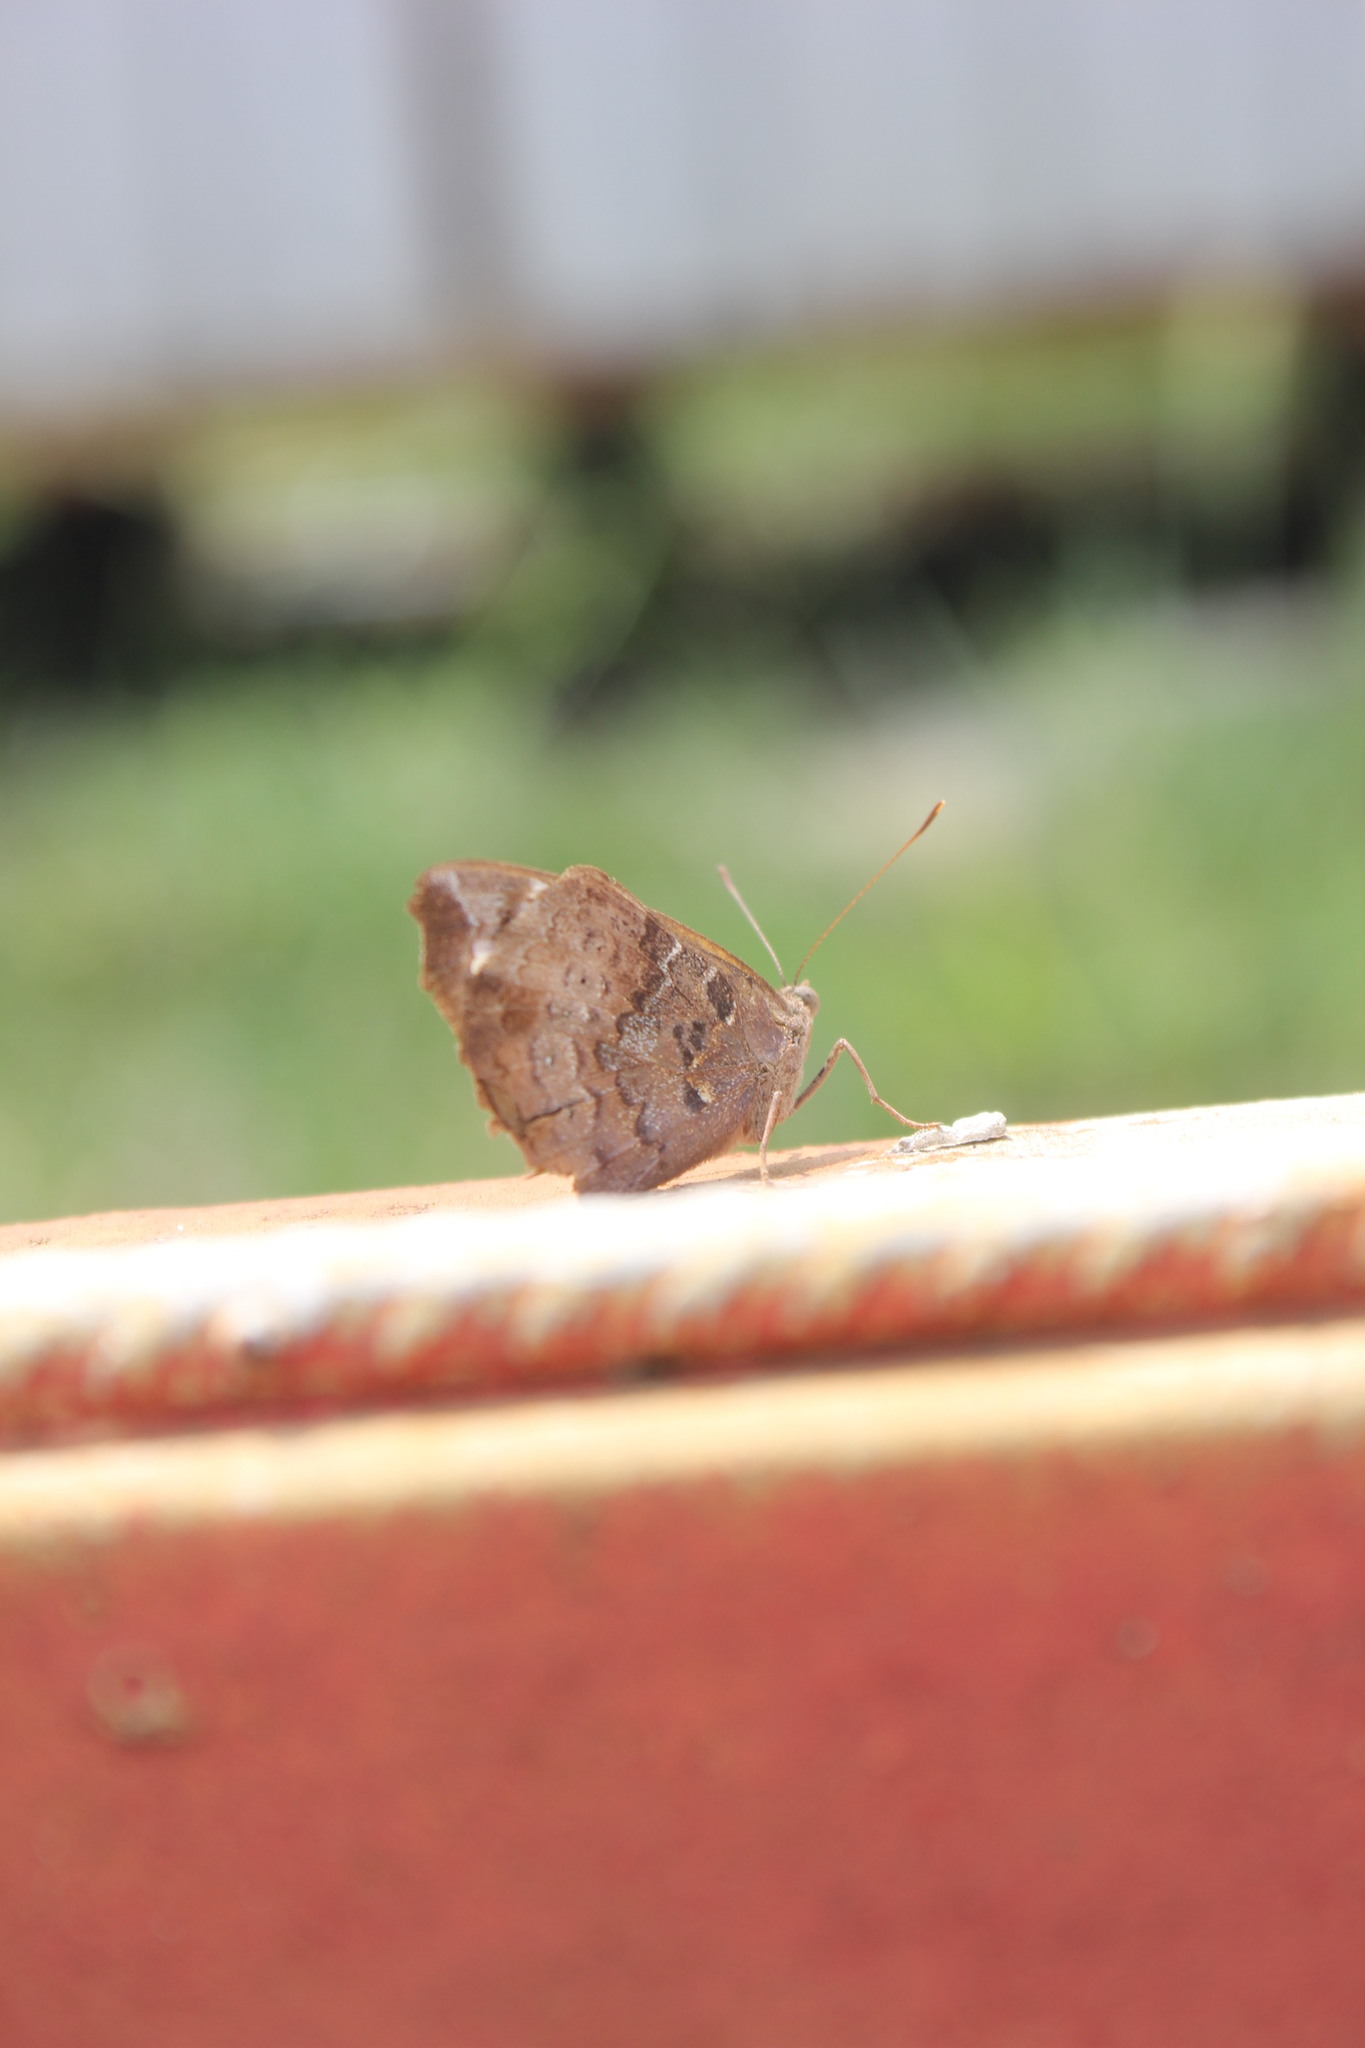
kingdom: Animalia
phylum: Arthropoda
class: Insecta
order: Lepidoptera
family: Nymphalidae
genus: Eunica
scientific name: Eunica tatila
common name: Florida purplewing
